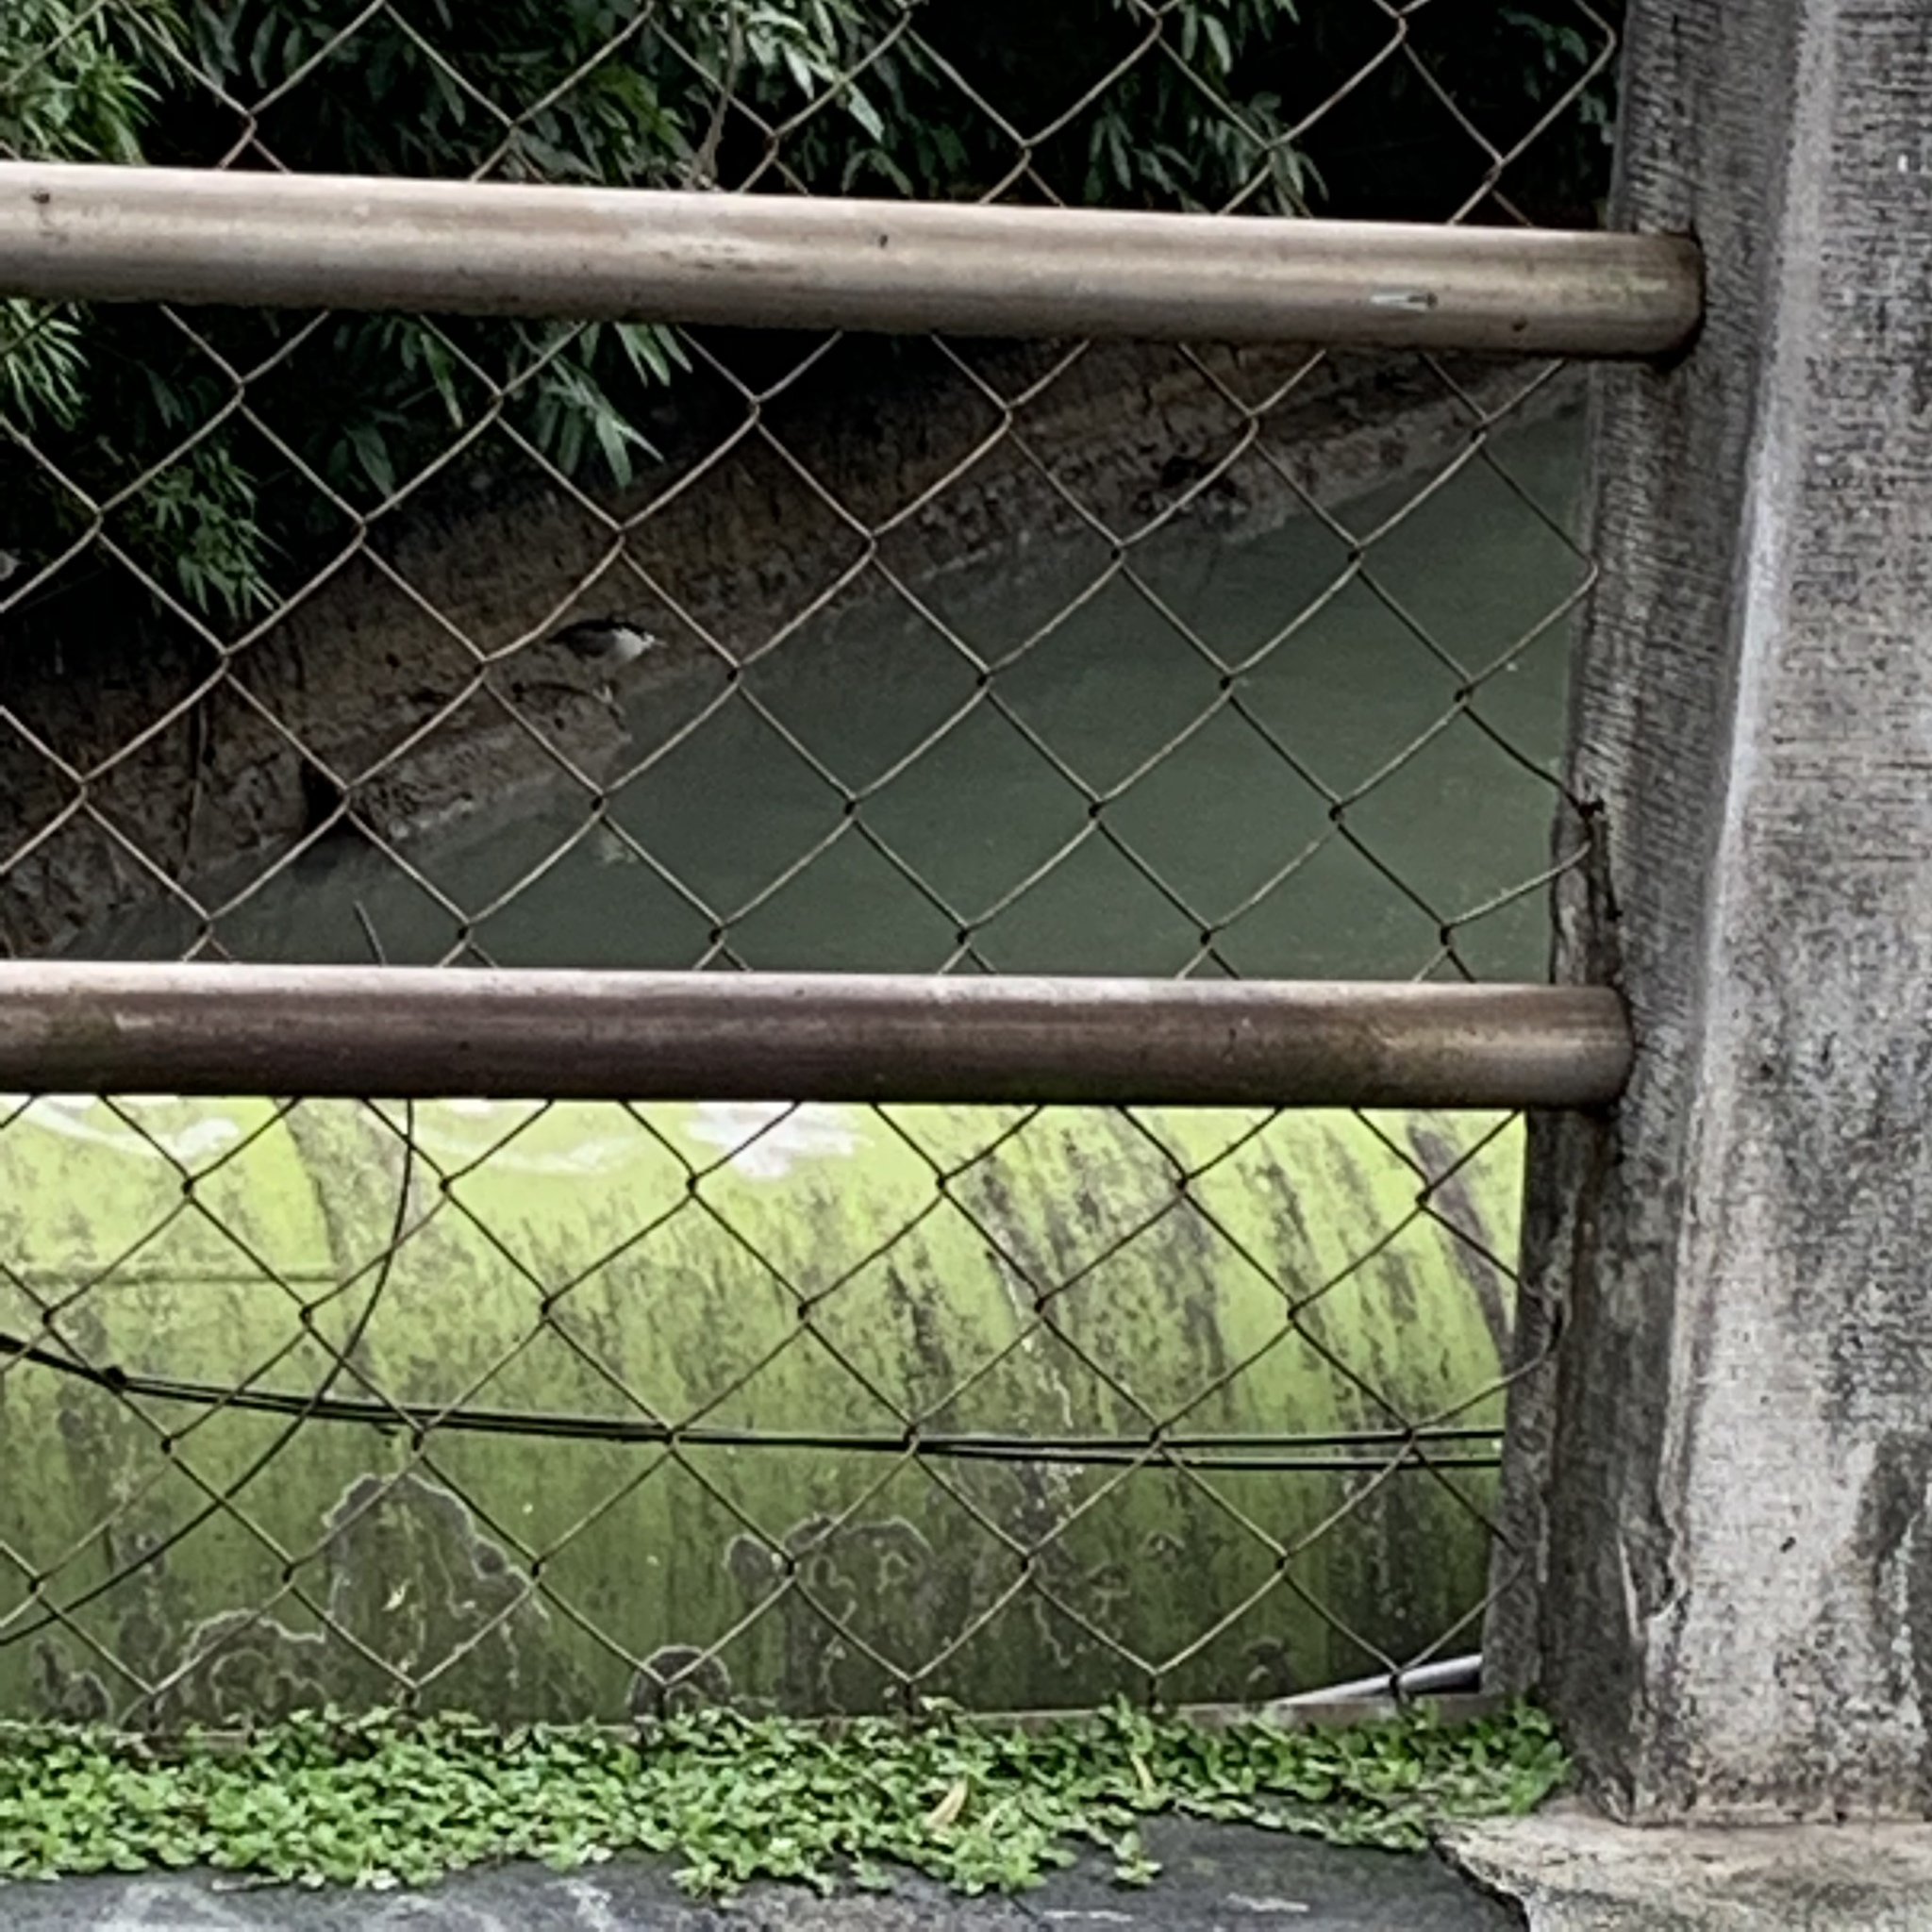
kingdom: Animalia
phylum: Chordata
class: Aves
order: Pelecaniformes
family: Ardeidae
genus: Nycticorax
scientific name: Nycticorax nycticorax
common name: Black-crowned night heron
